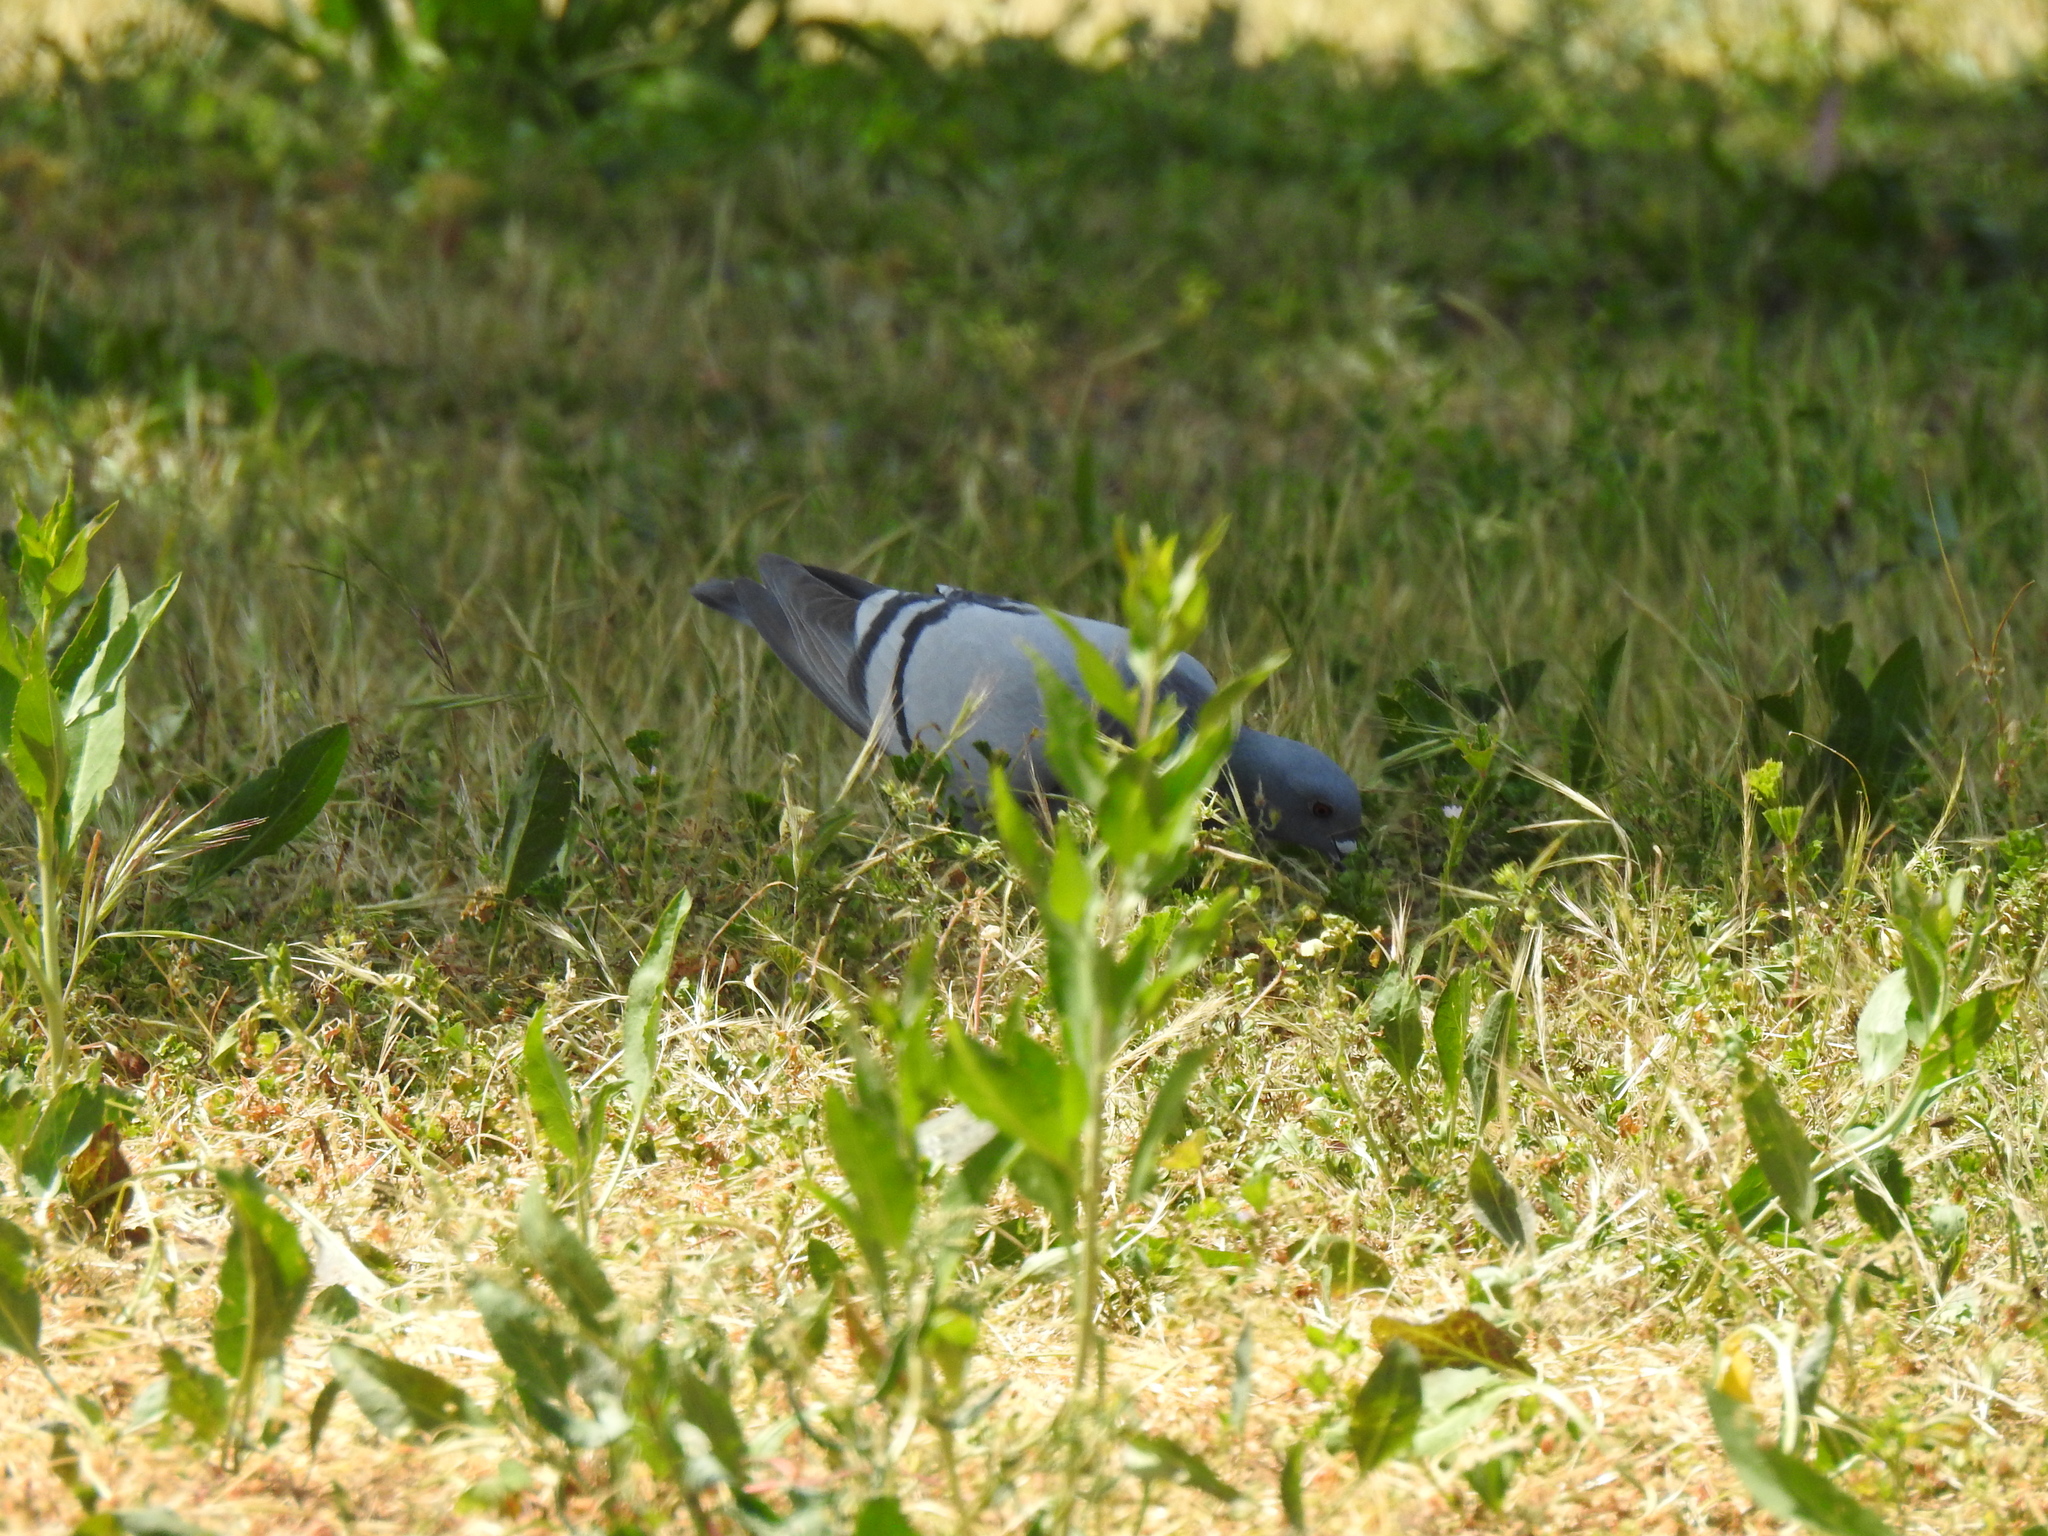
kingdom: Animalia
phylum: Chordata
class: Aves
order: Columbiformes
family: Columbidae
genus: Columba
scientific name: Columba livia
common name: Rock pigeon
